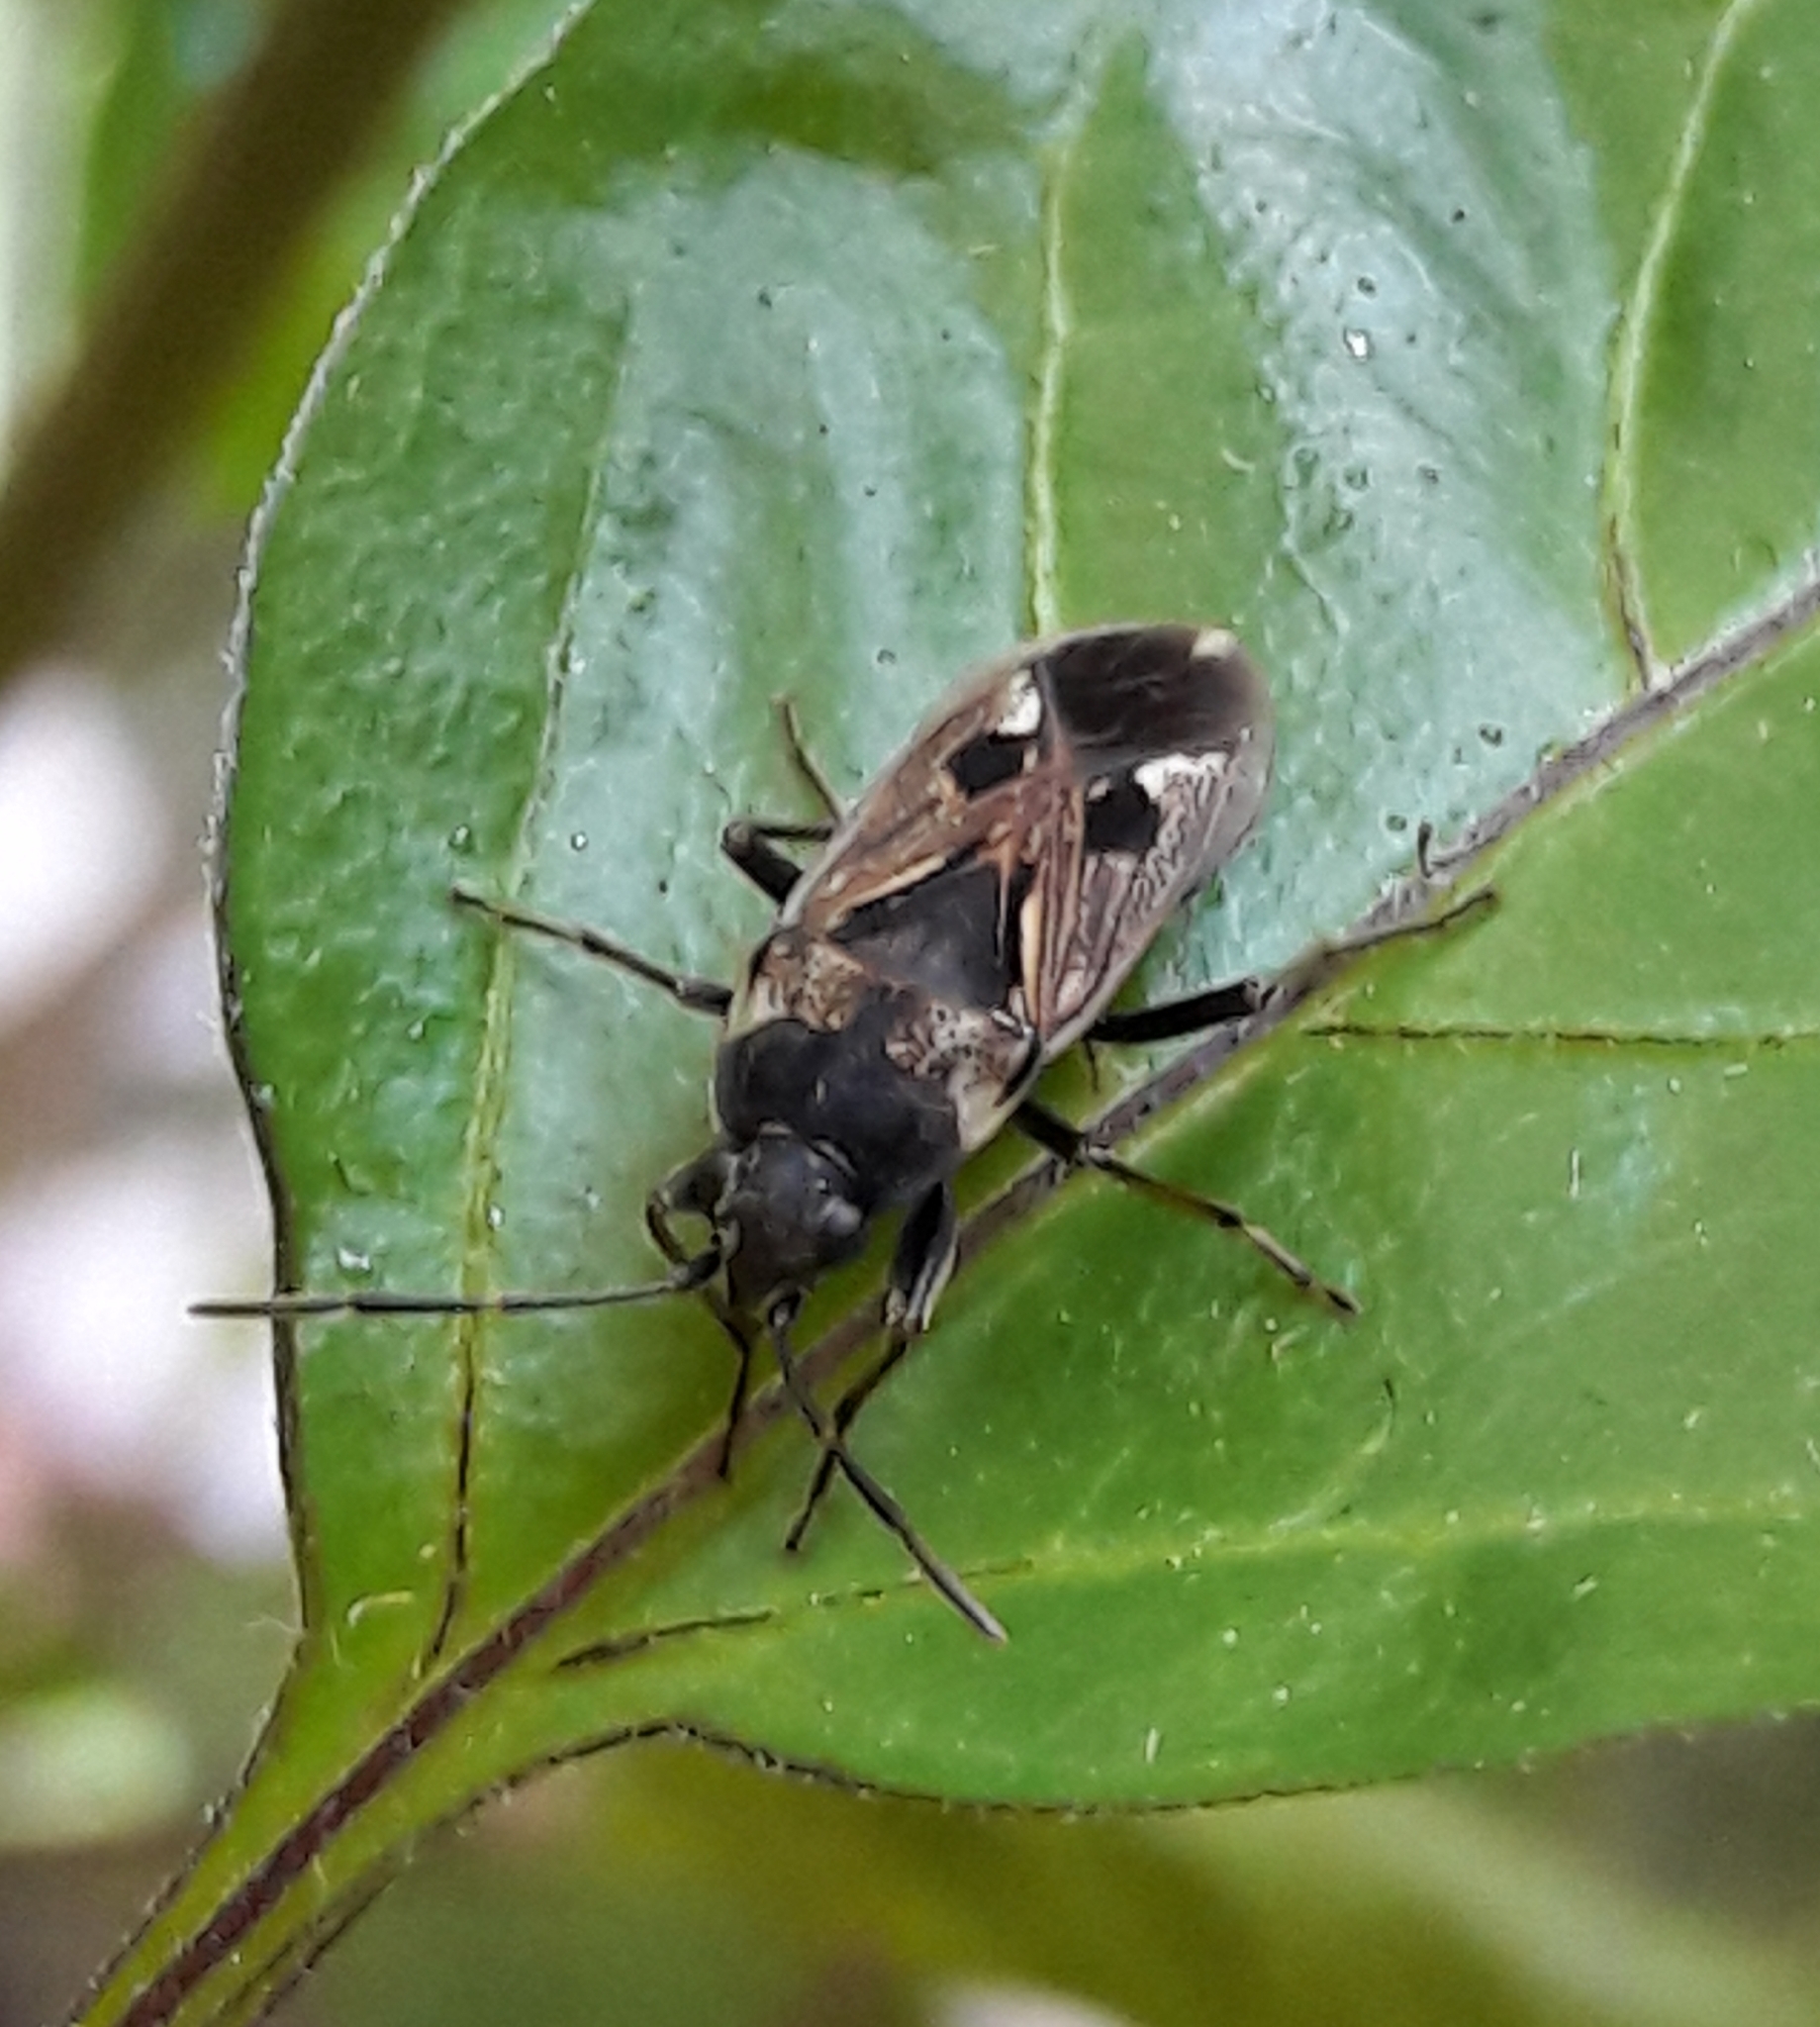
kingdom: Animalia
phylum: Arthropoda
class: Insecta
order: Hemiptera
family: Rhyparochromidae
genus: Rhyparochromus
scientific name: Rhyparochromus vulgaris
